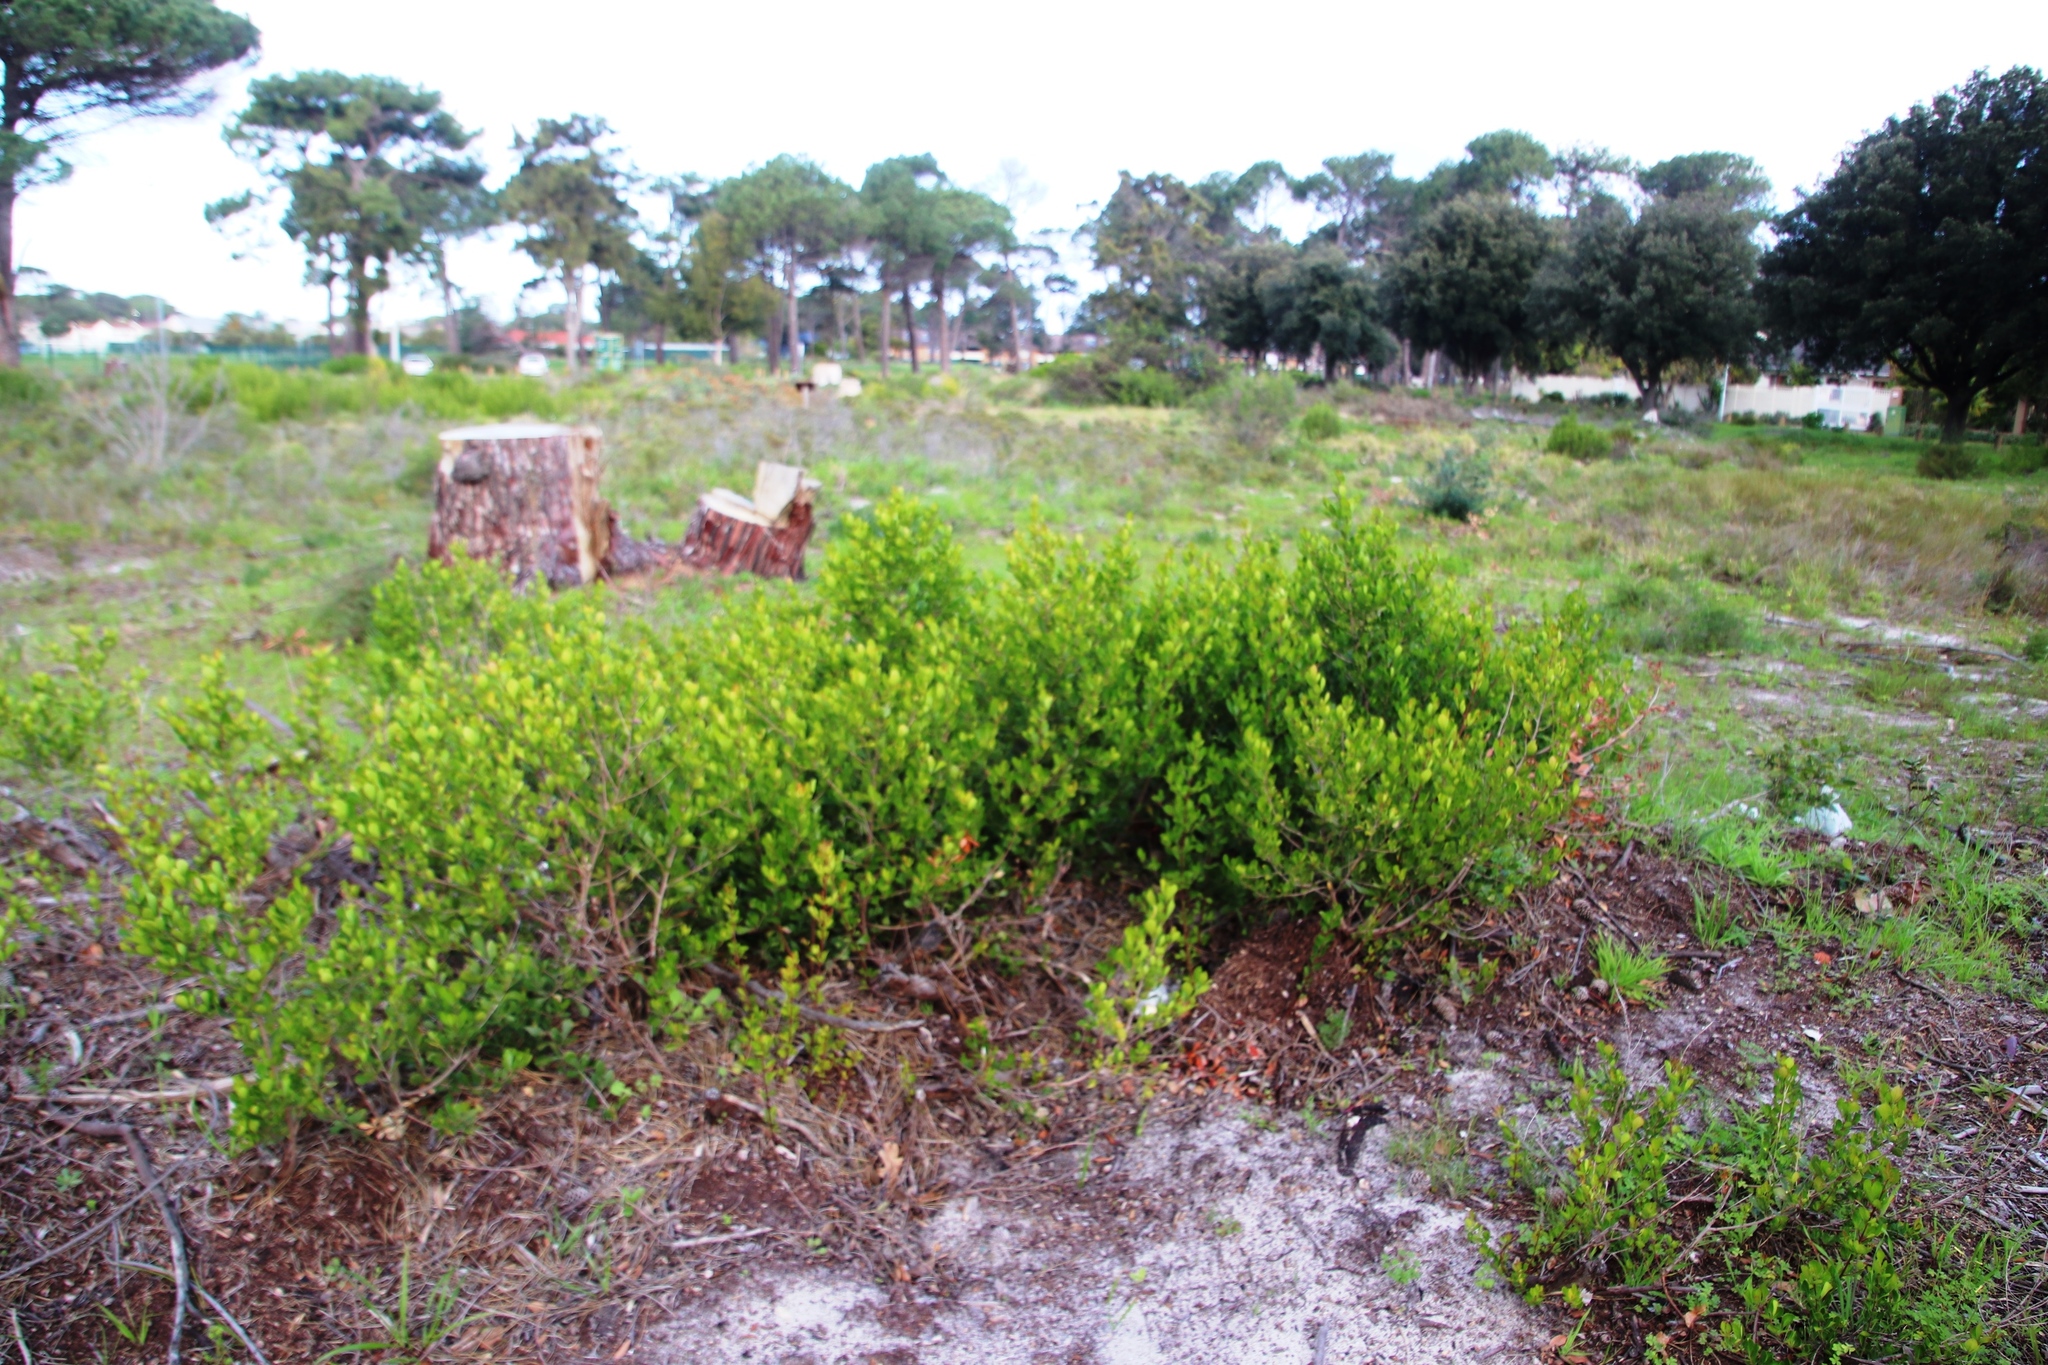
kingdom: Plantae
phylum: Tracheophyta
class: Magnoliopsida
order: Sapindales
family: Anacardiaceae
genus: Searsia
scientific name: Searsia lucida
